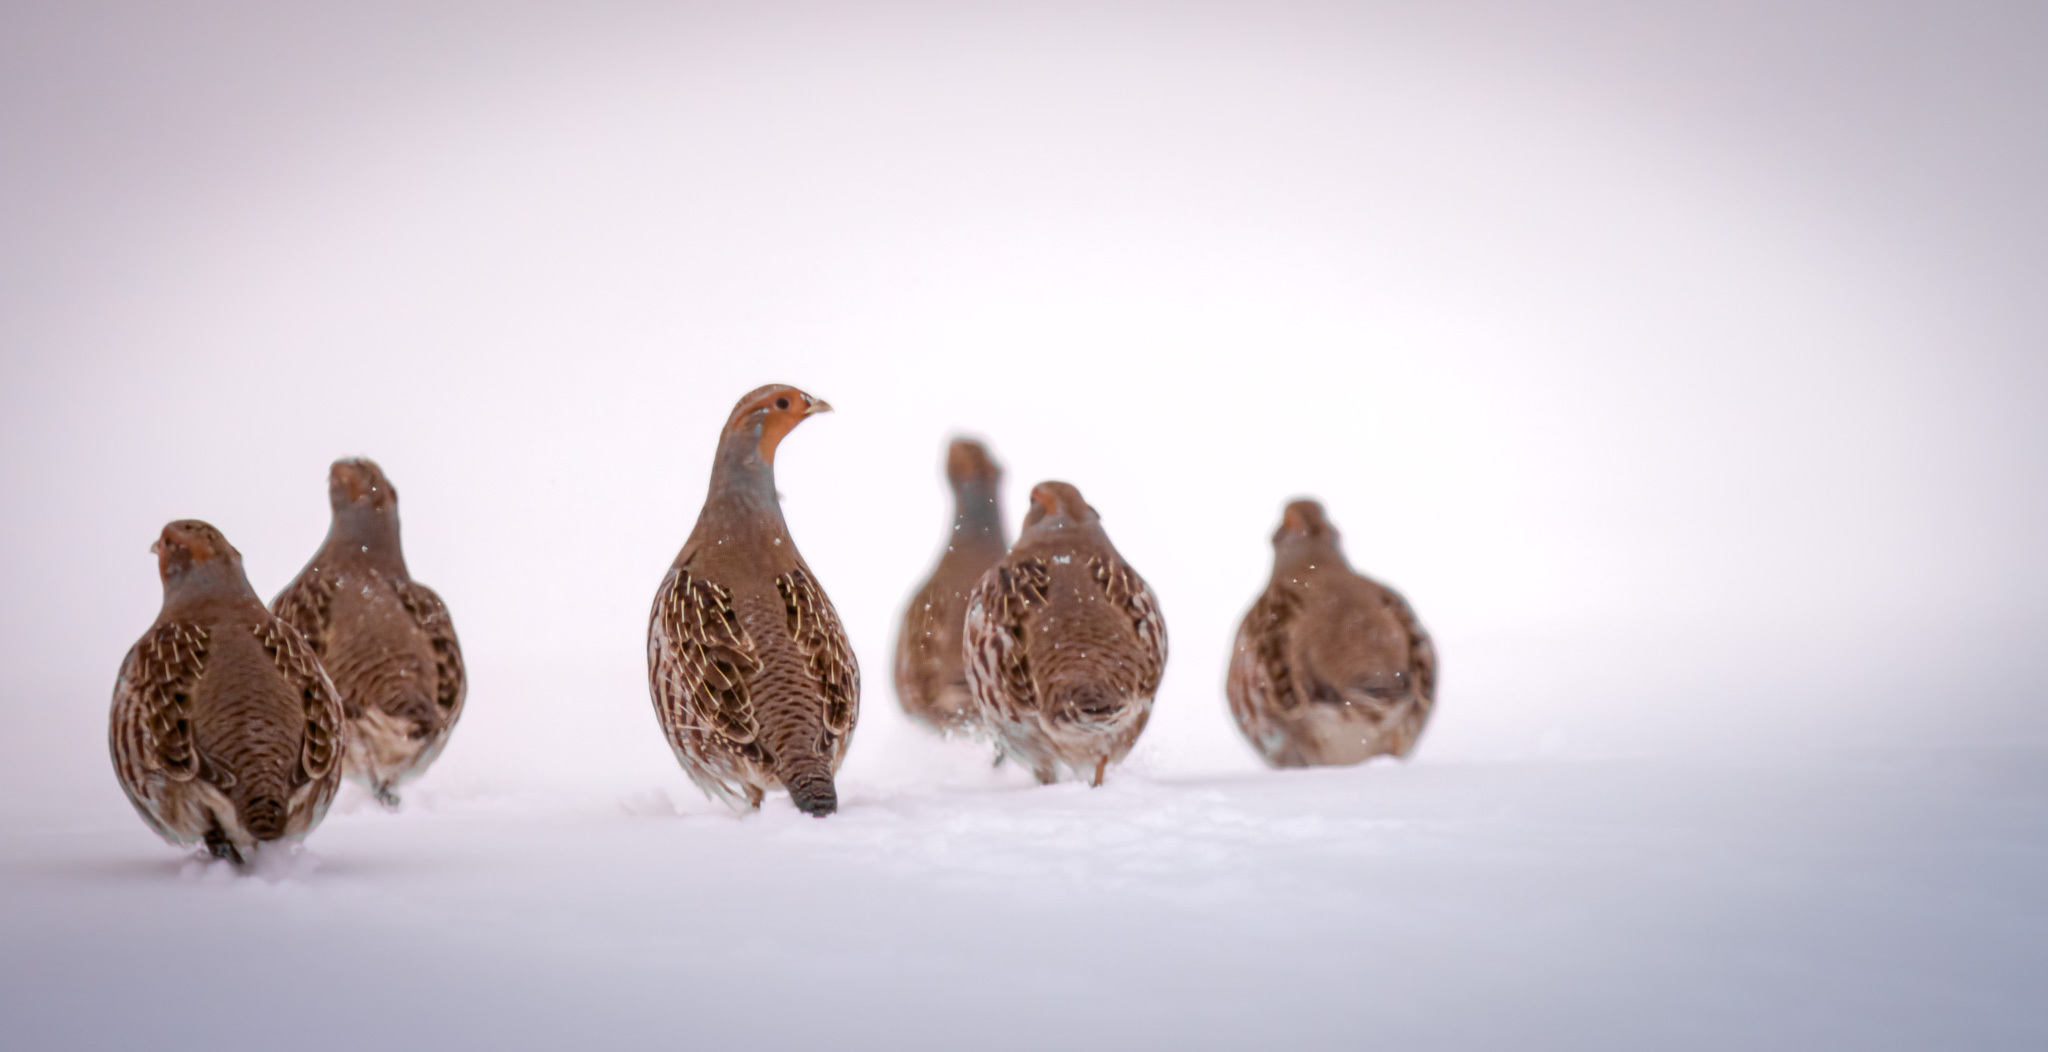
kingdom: Animalia
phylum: Chordata
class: Aves
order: Galliformes
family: Phasianidae
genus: Perdix
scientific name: Perdix perdix
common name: Grey partridge
